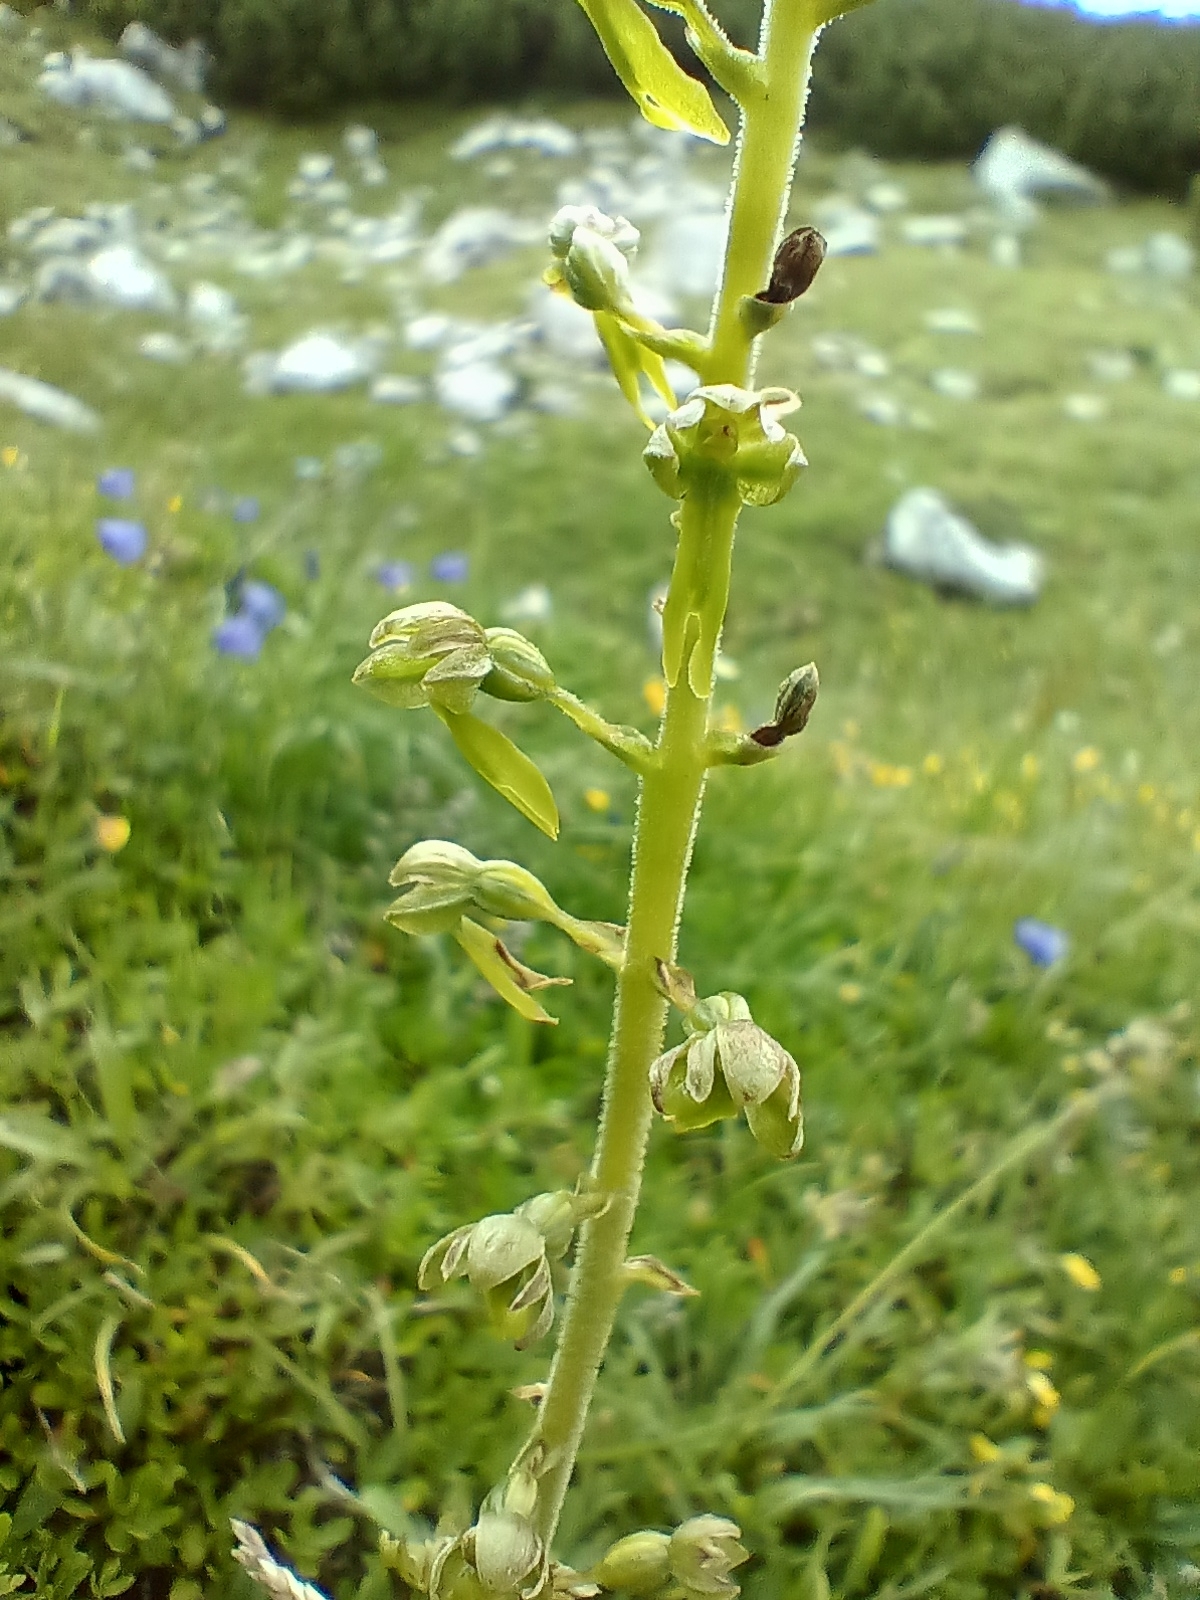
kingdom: Plantae
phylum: Tracheophyta
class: Liliopsida
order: Asparagales
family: Orchidaceae
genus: Neottia
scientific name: Neottia ovata
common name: Common twayblade
